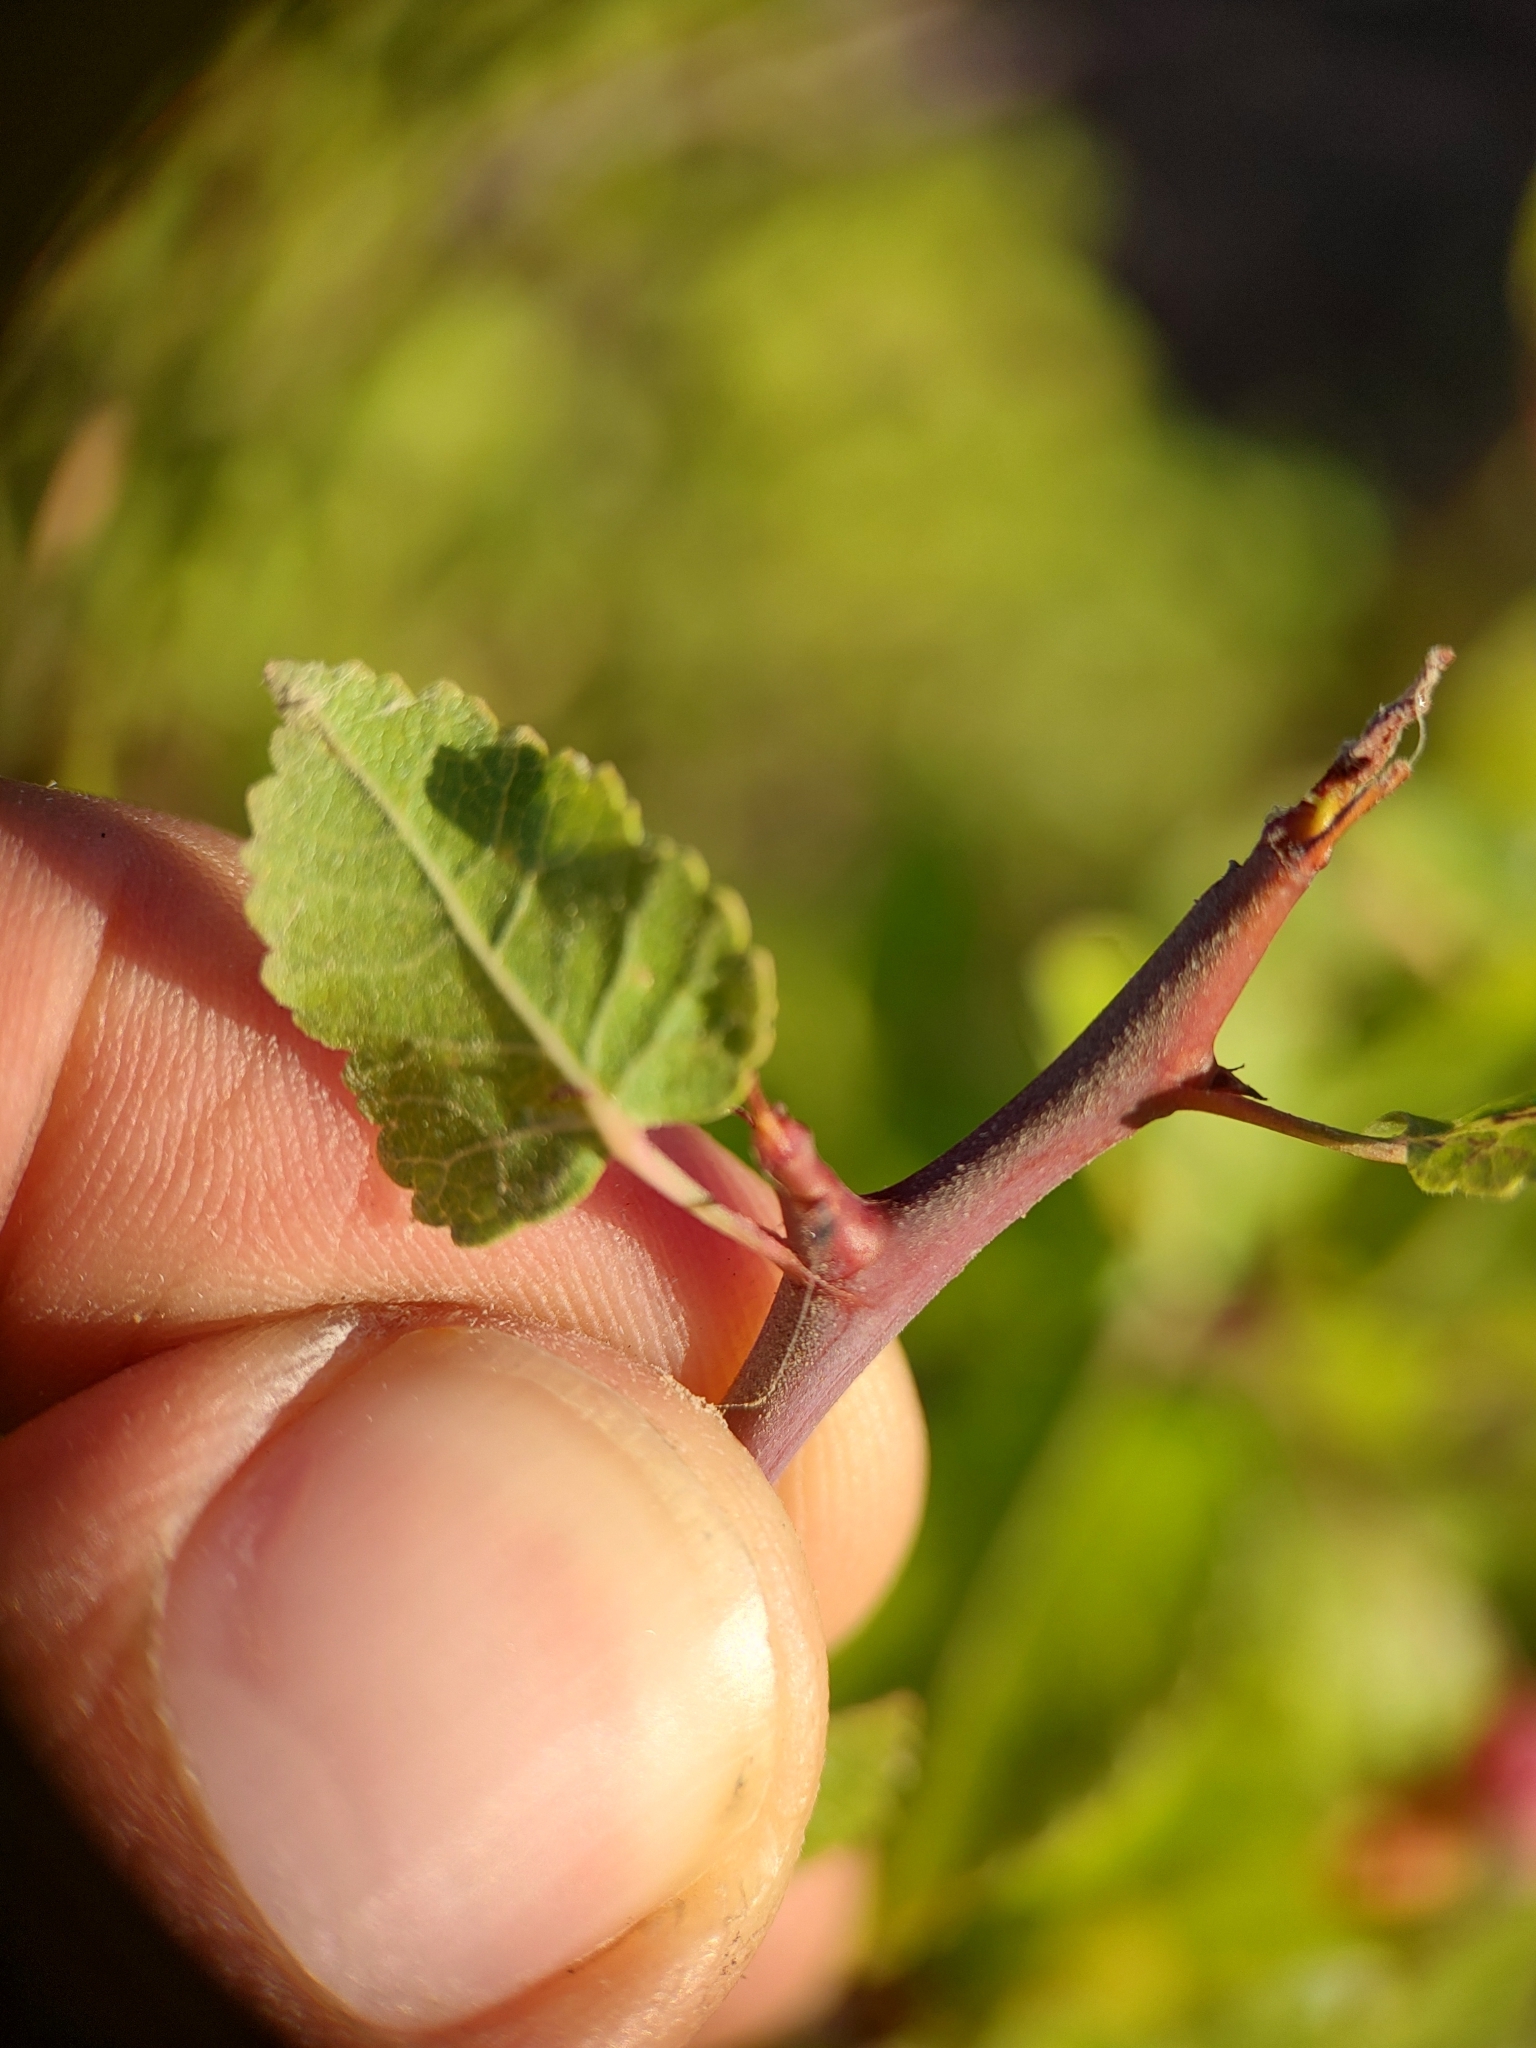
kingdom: Plantae
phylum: Tracheophyta
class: Magnoliopsida
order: Sapindales
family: Burseraceae
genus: Bursera
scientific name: Bursera epinnata
